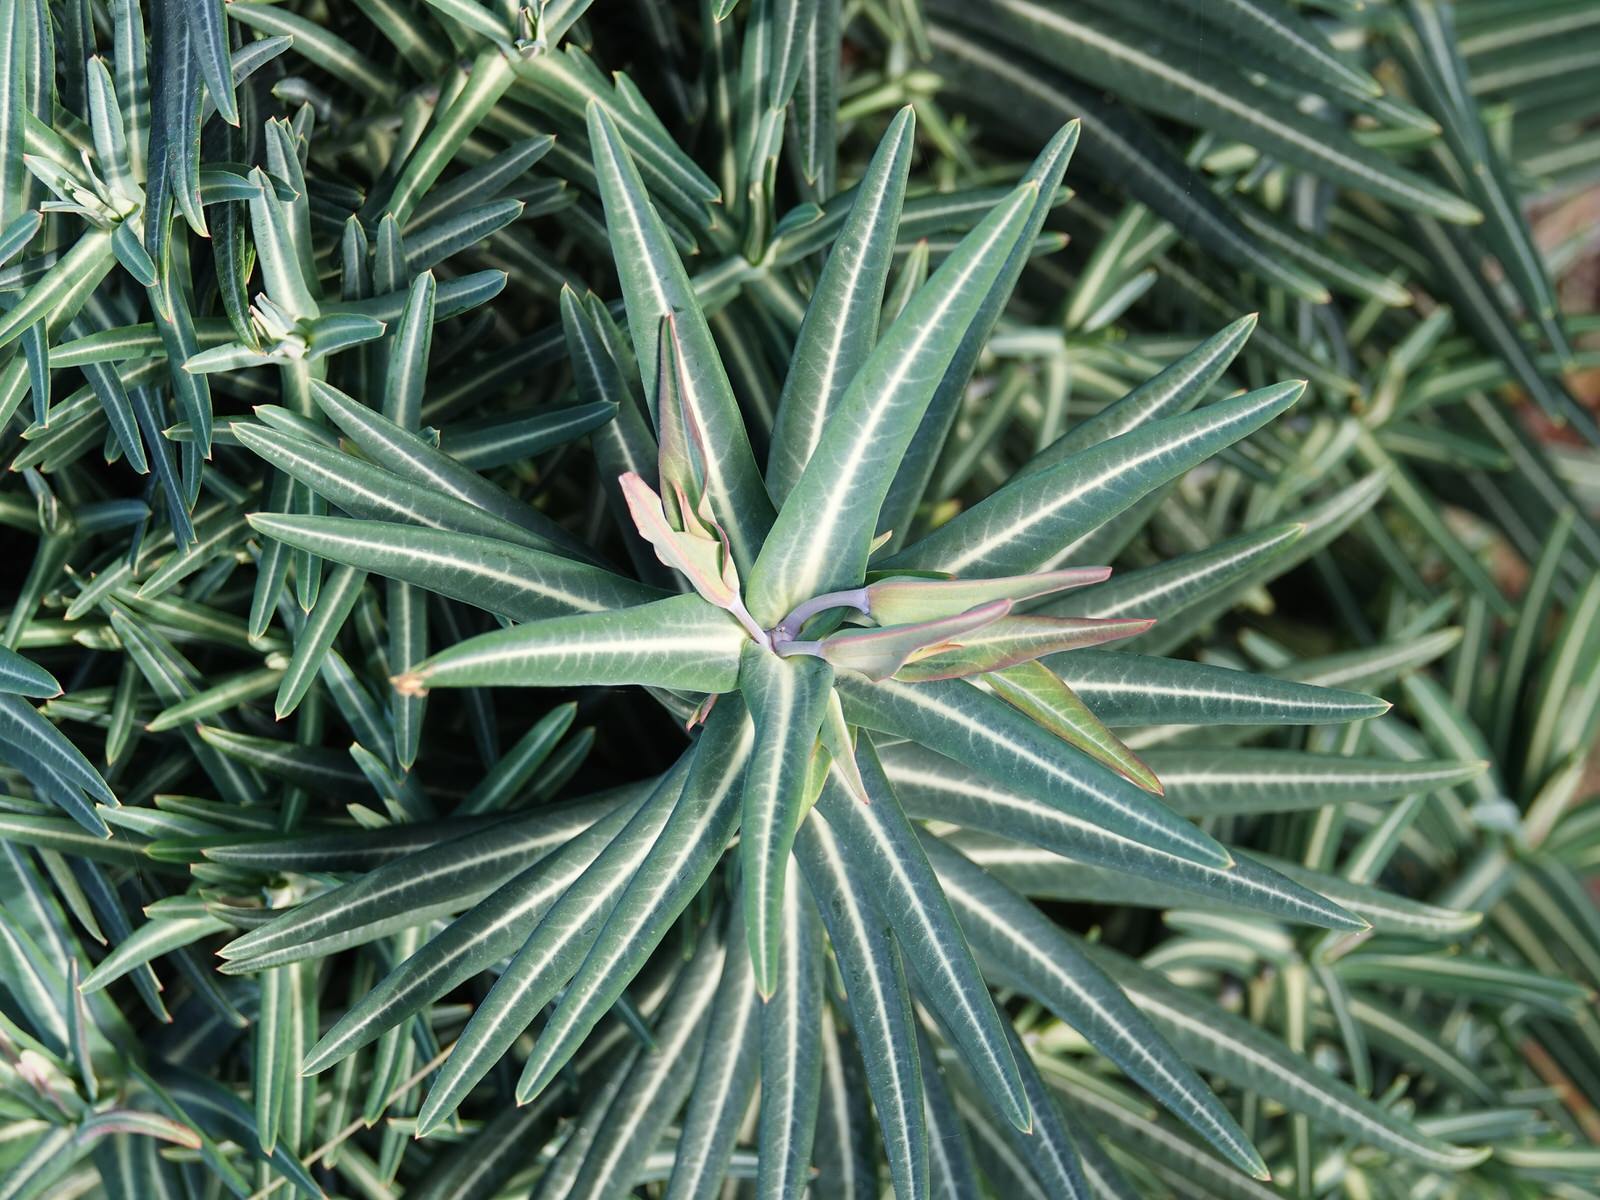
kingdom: Plantae
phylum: Tracheophyta
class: Magnoliopsida
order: Malpighiales
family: Euphorbiaceae
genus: Euphorbia
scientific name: Euphorbia lathyris
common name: Caper spurge
